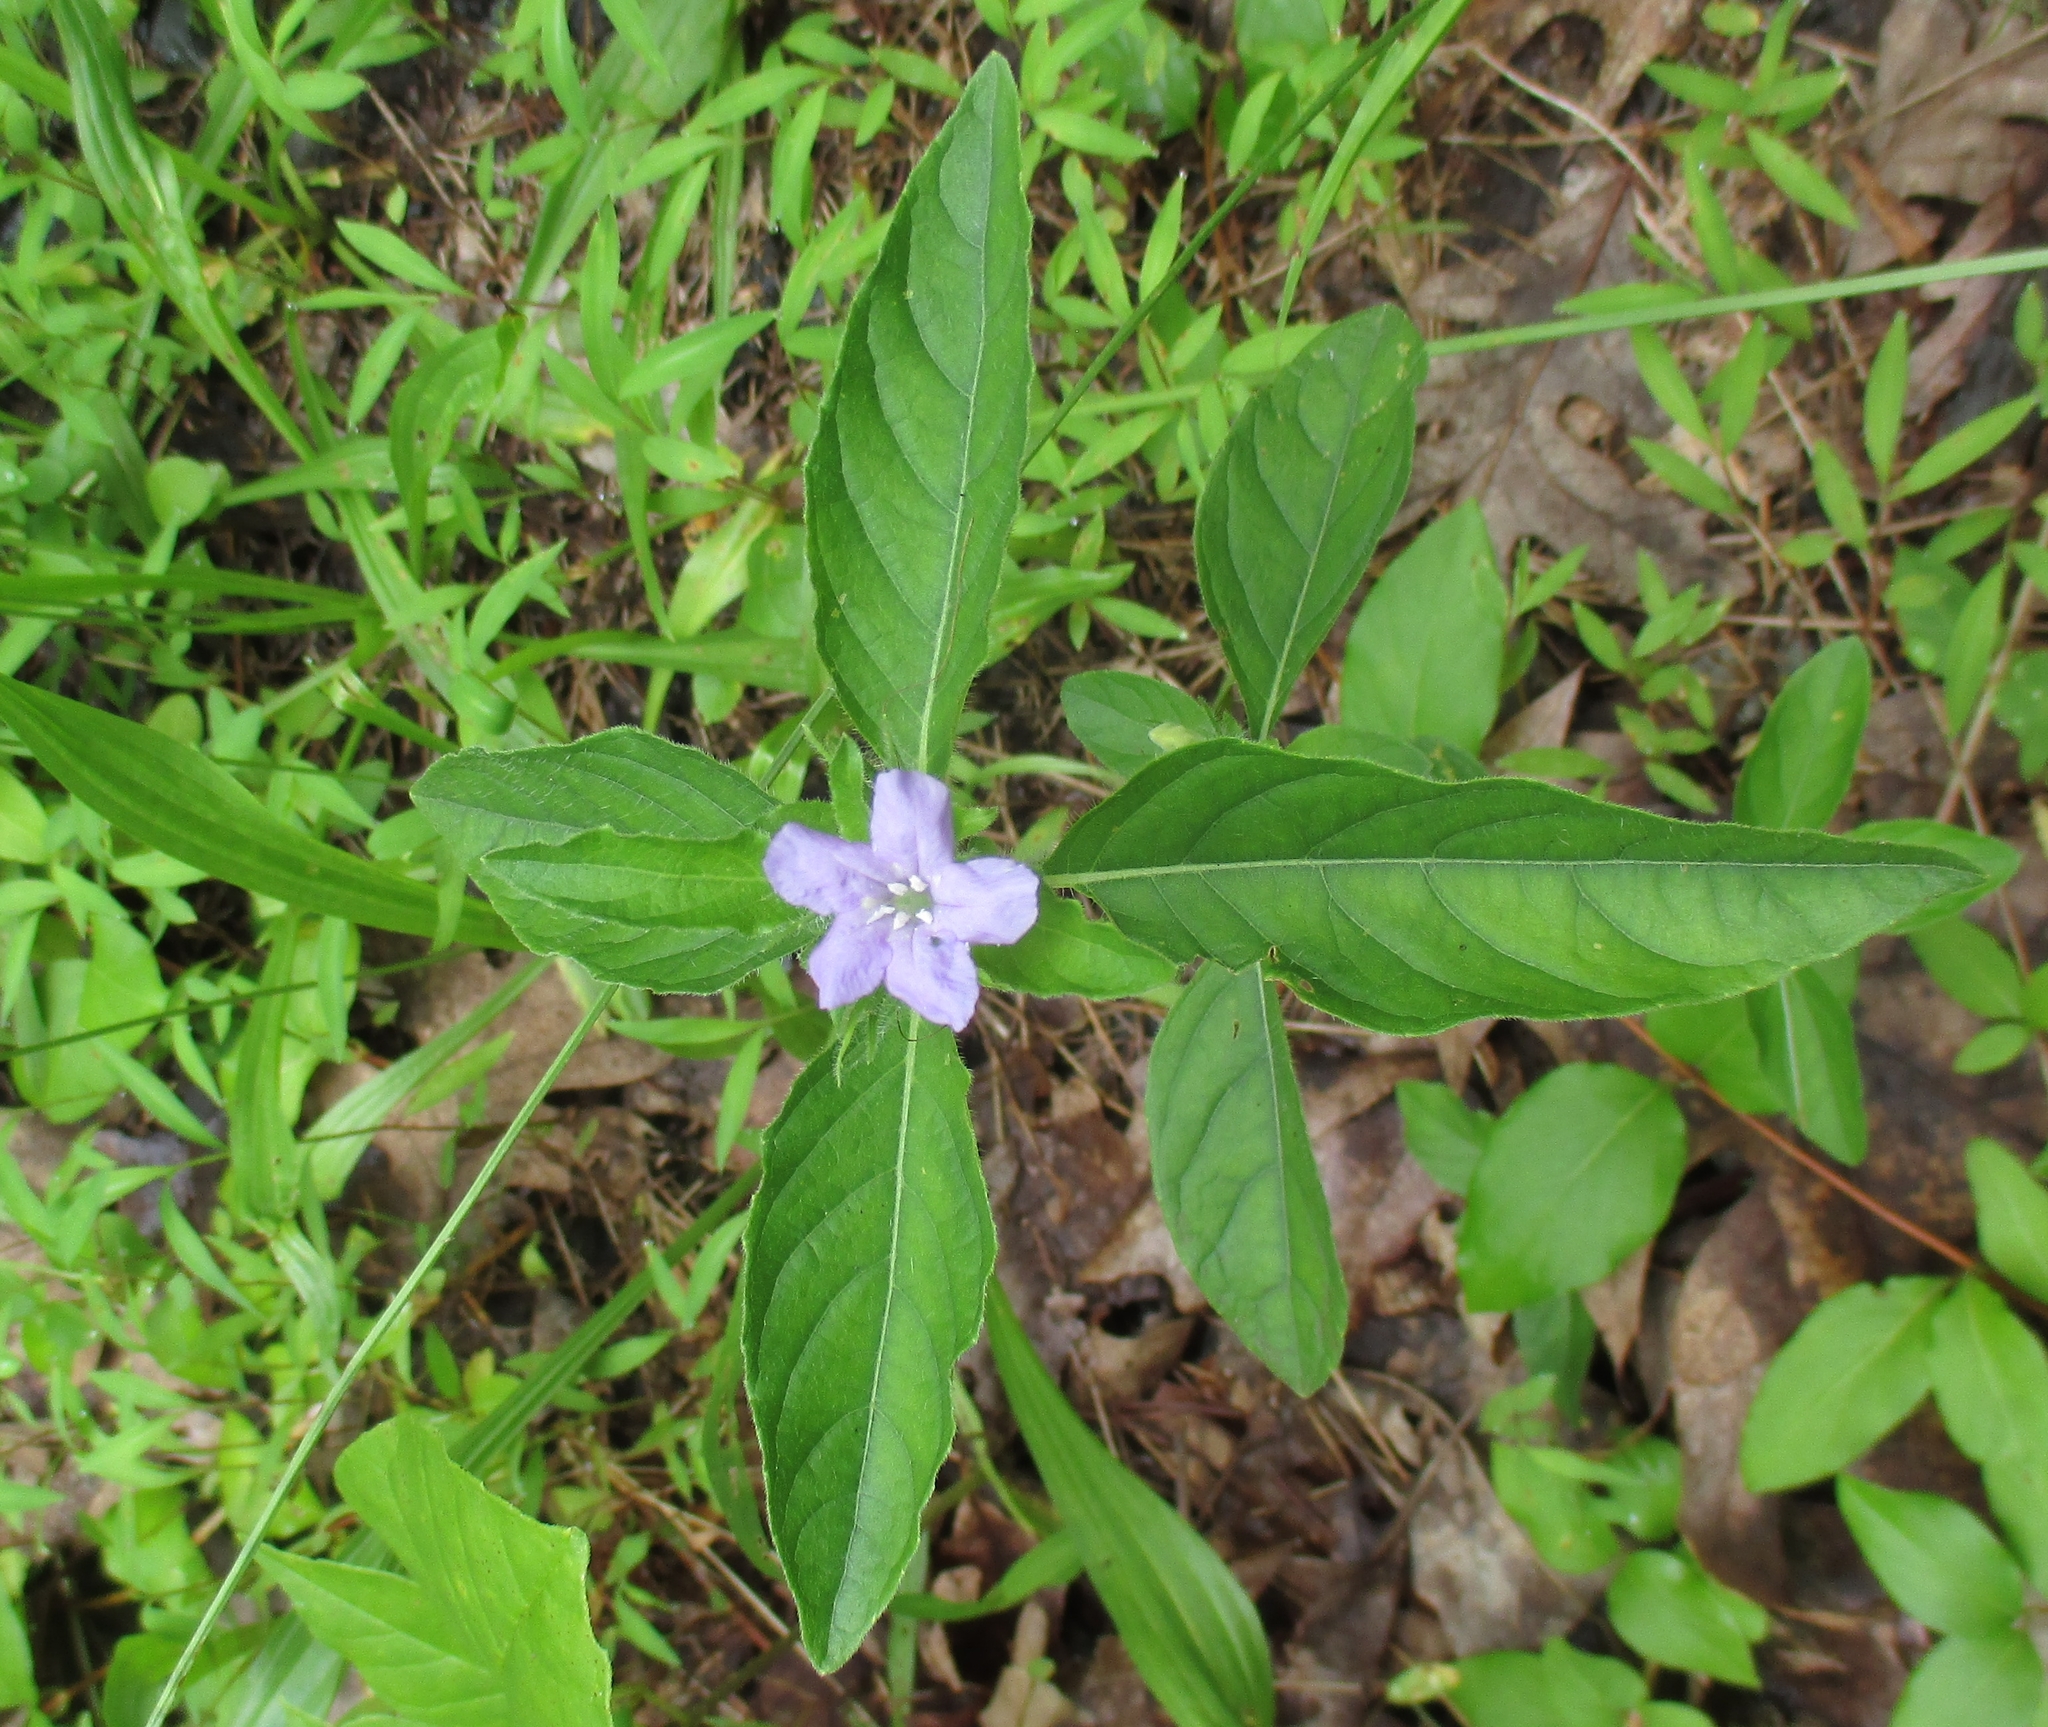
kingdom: Plantae
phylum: Tracheophyta
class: Magnoliopsida
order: Lamiales
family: Acanthaceae
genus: Ruellia
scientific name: Ruellia caroliniensis
